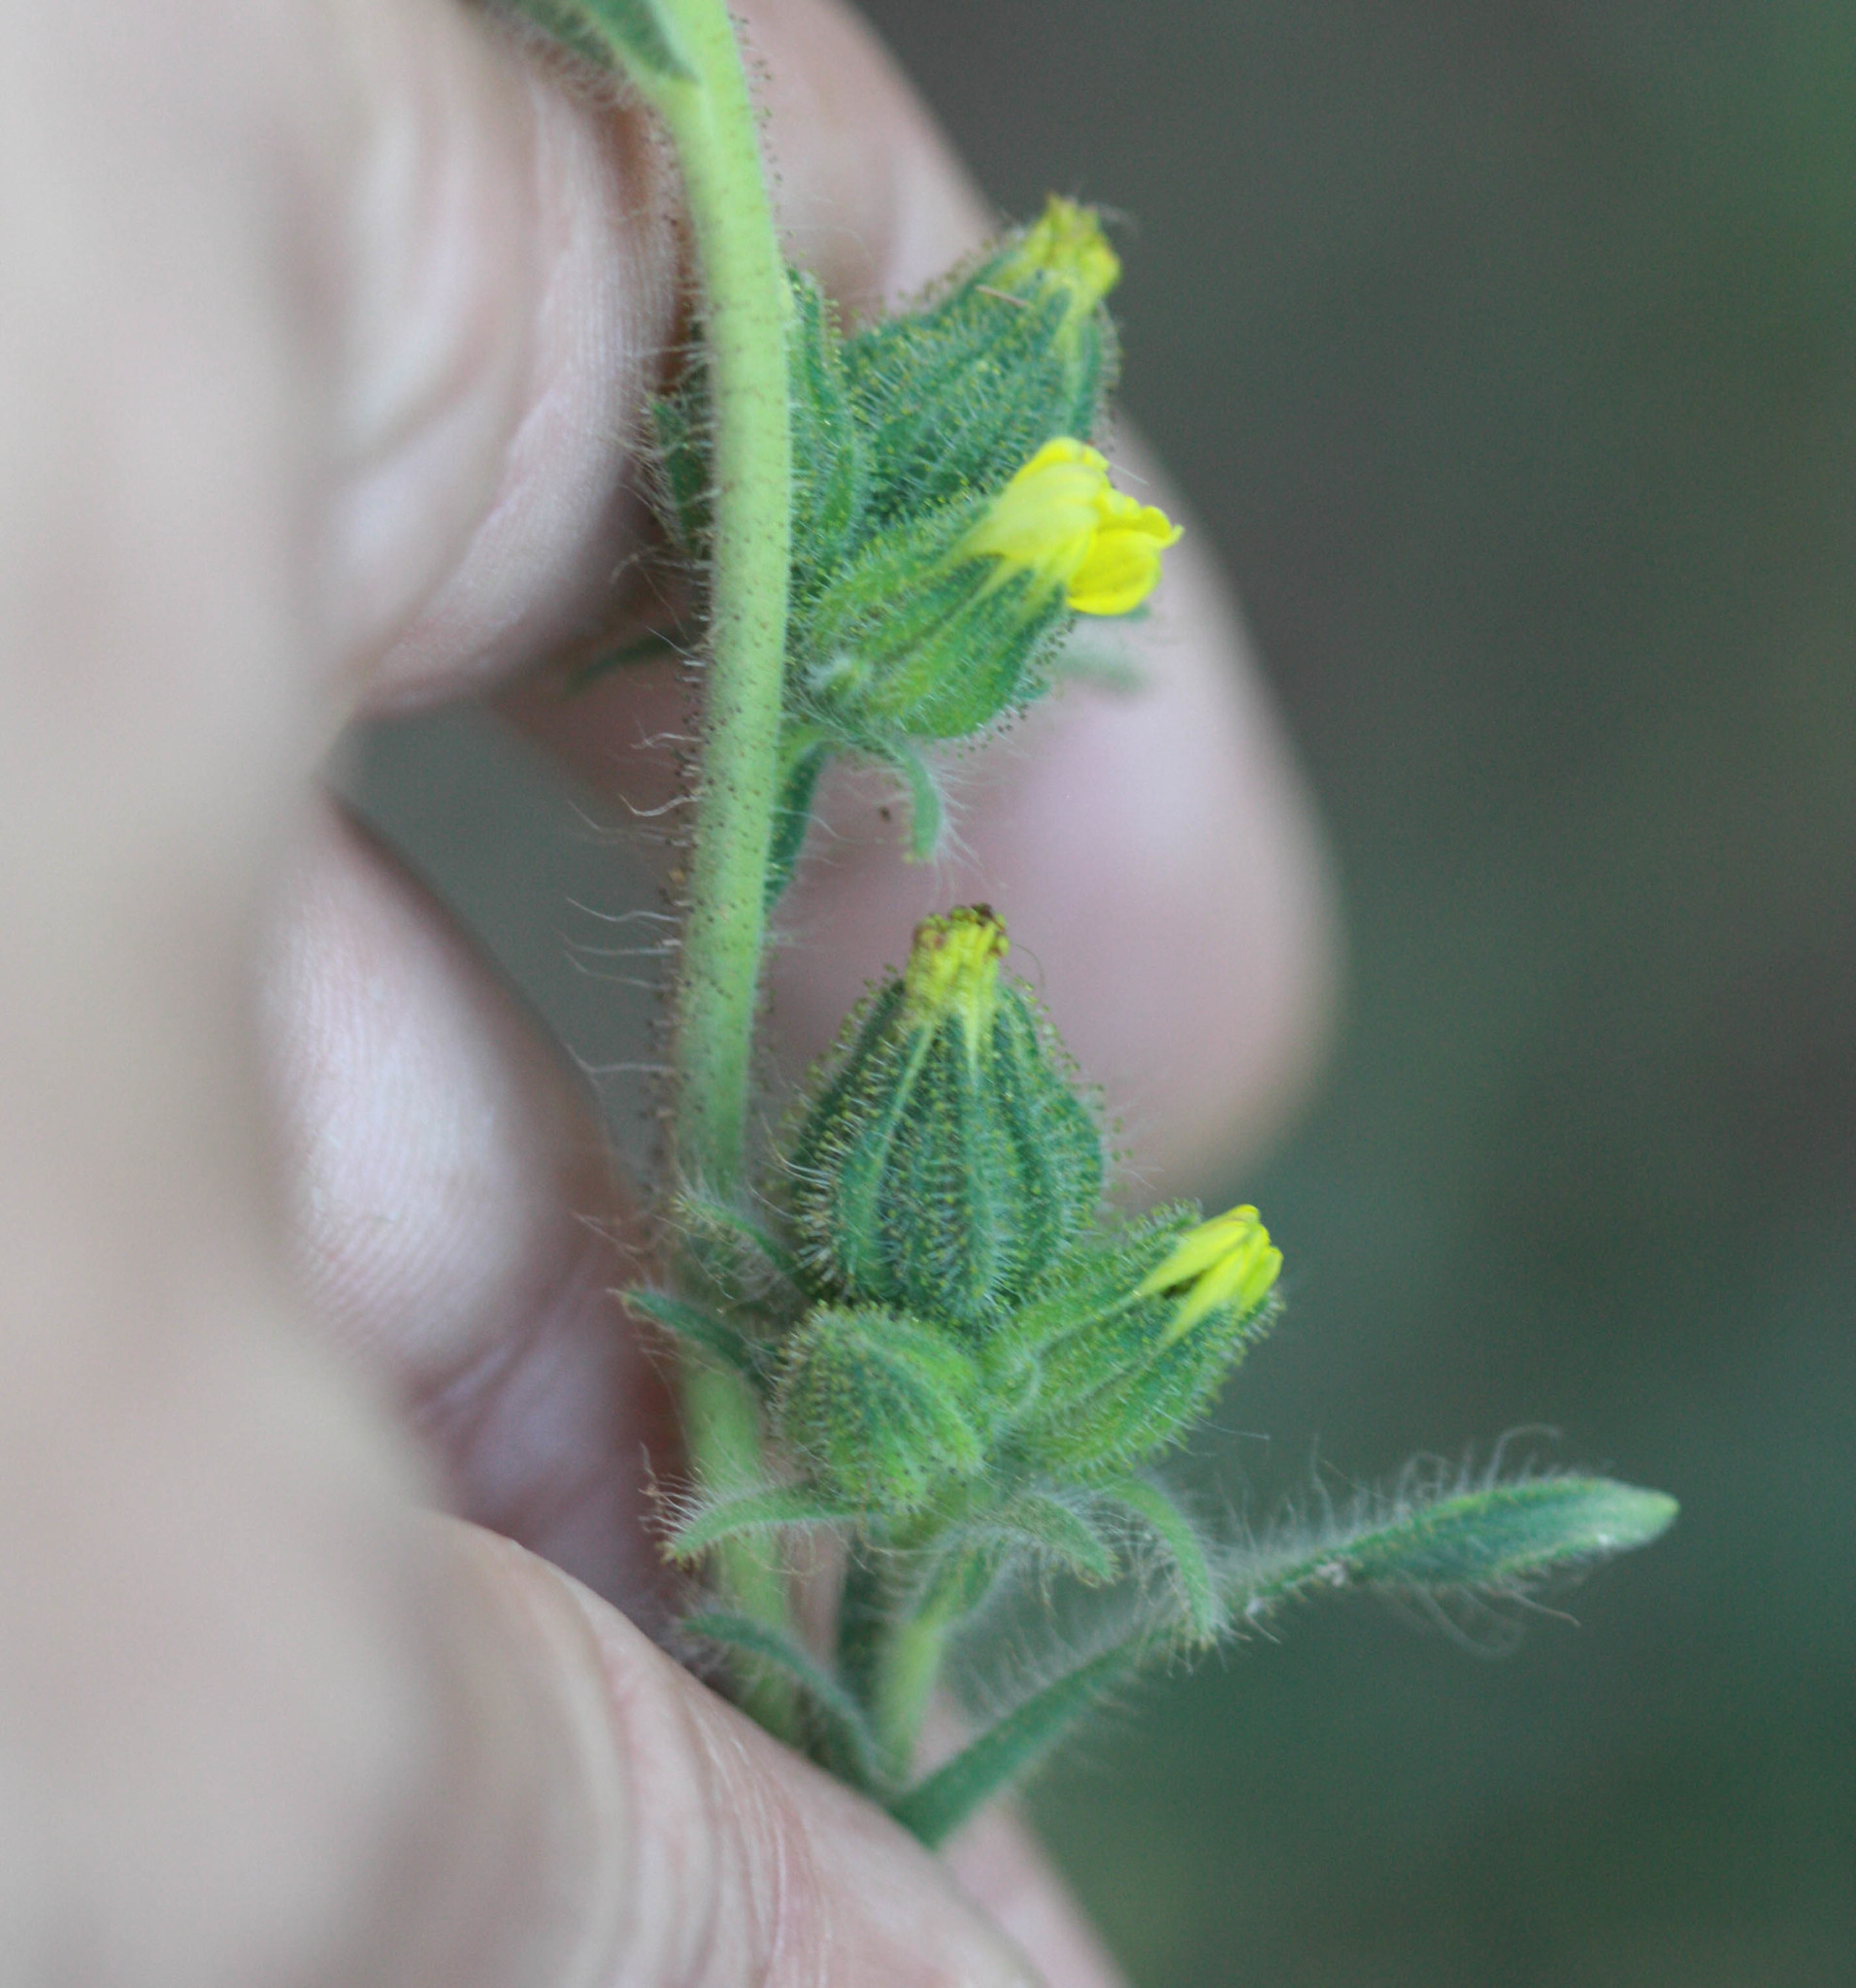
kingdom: Plantae
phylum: Tracheophyta
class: Magnoliopsida
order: Asterales
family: Asteraceae
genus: Madia
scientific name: Madia sativa
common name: Coast tarweed
